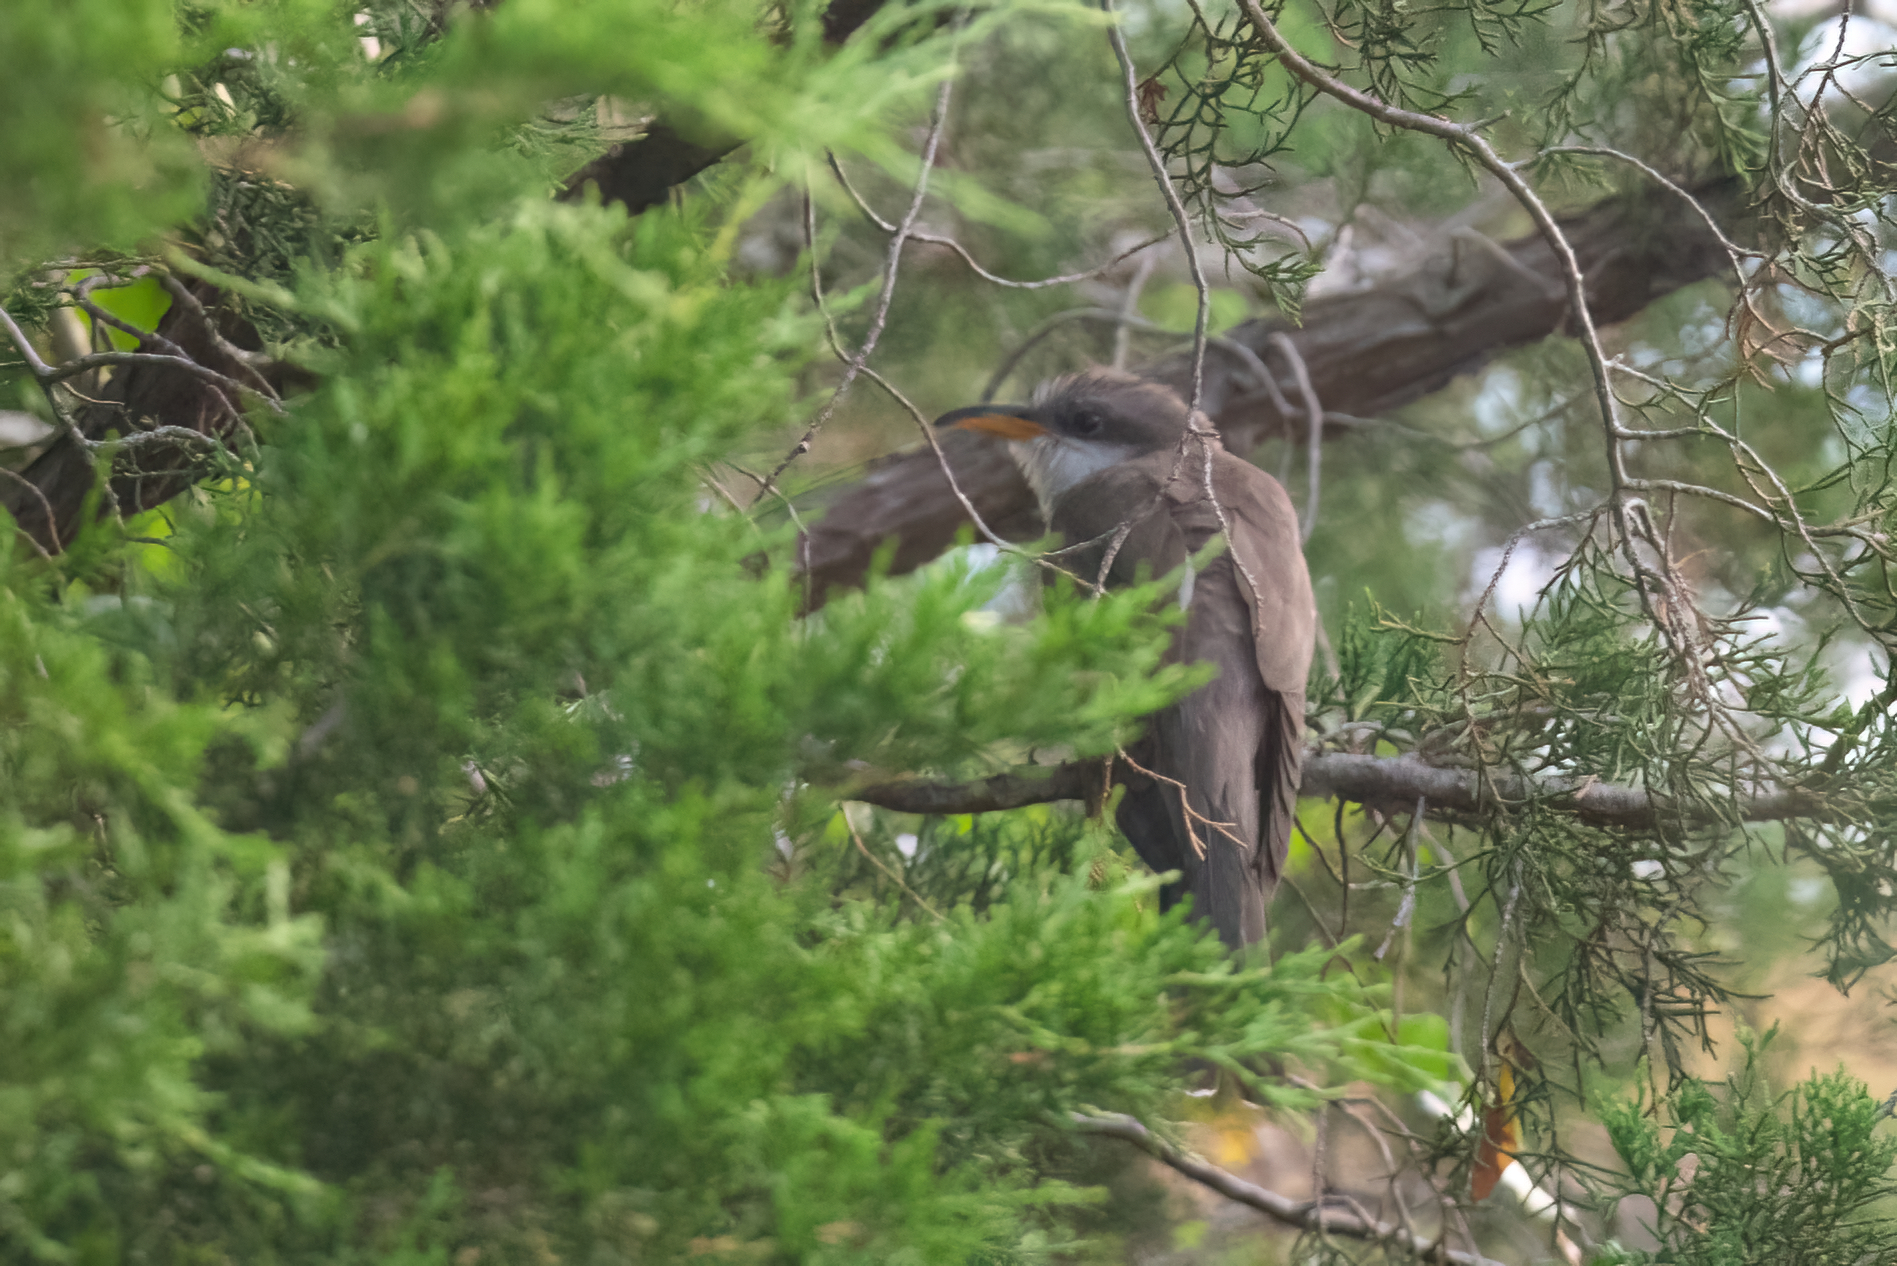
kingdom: Animalia
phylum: Chordata
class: Aves
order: Cuculiformes
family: Cuculidae
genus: Coccyzus
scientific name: Coccyzus americanus
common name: Yellow-billed cuckoo
